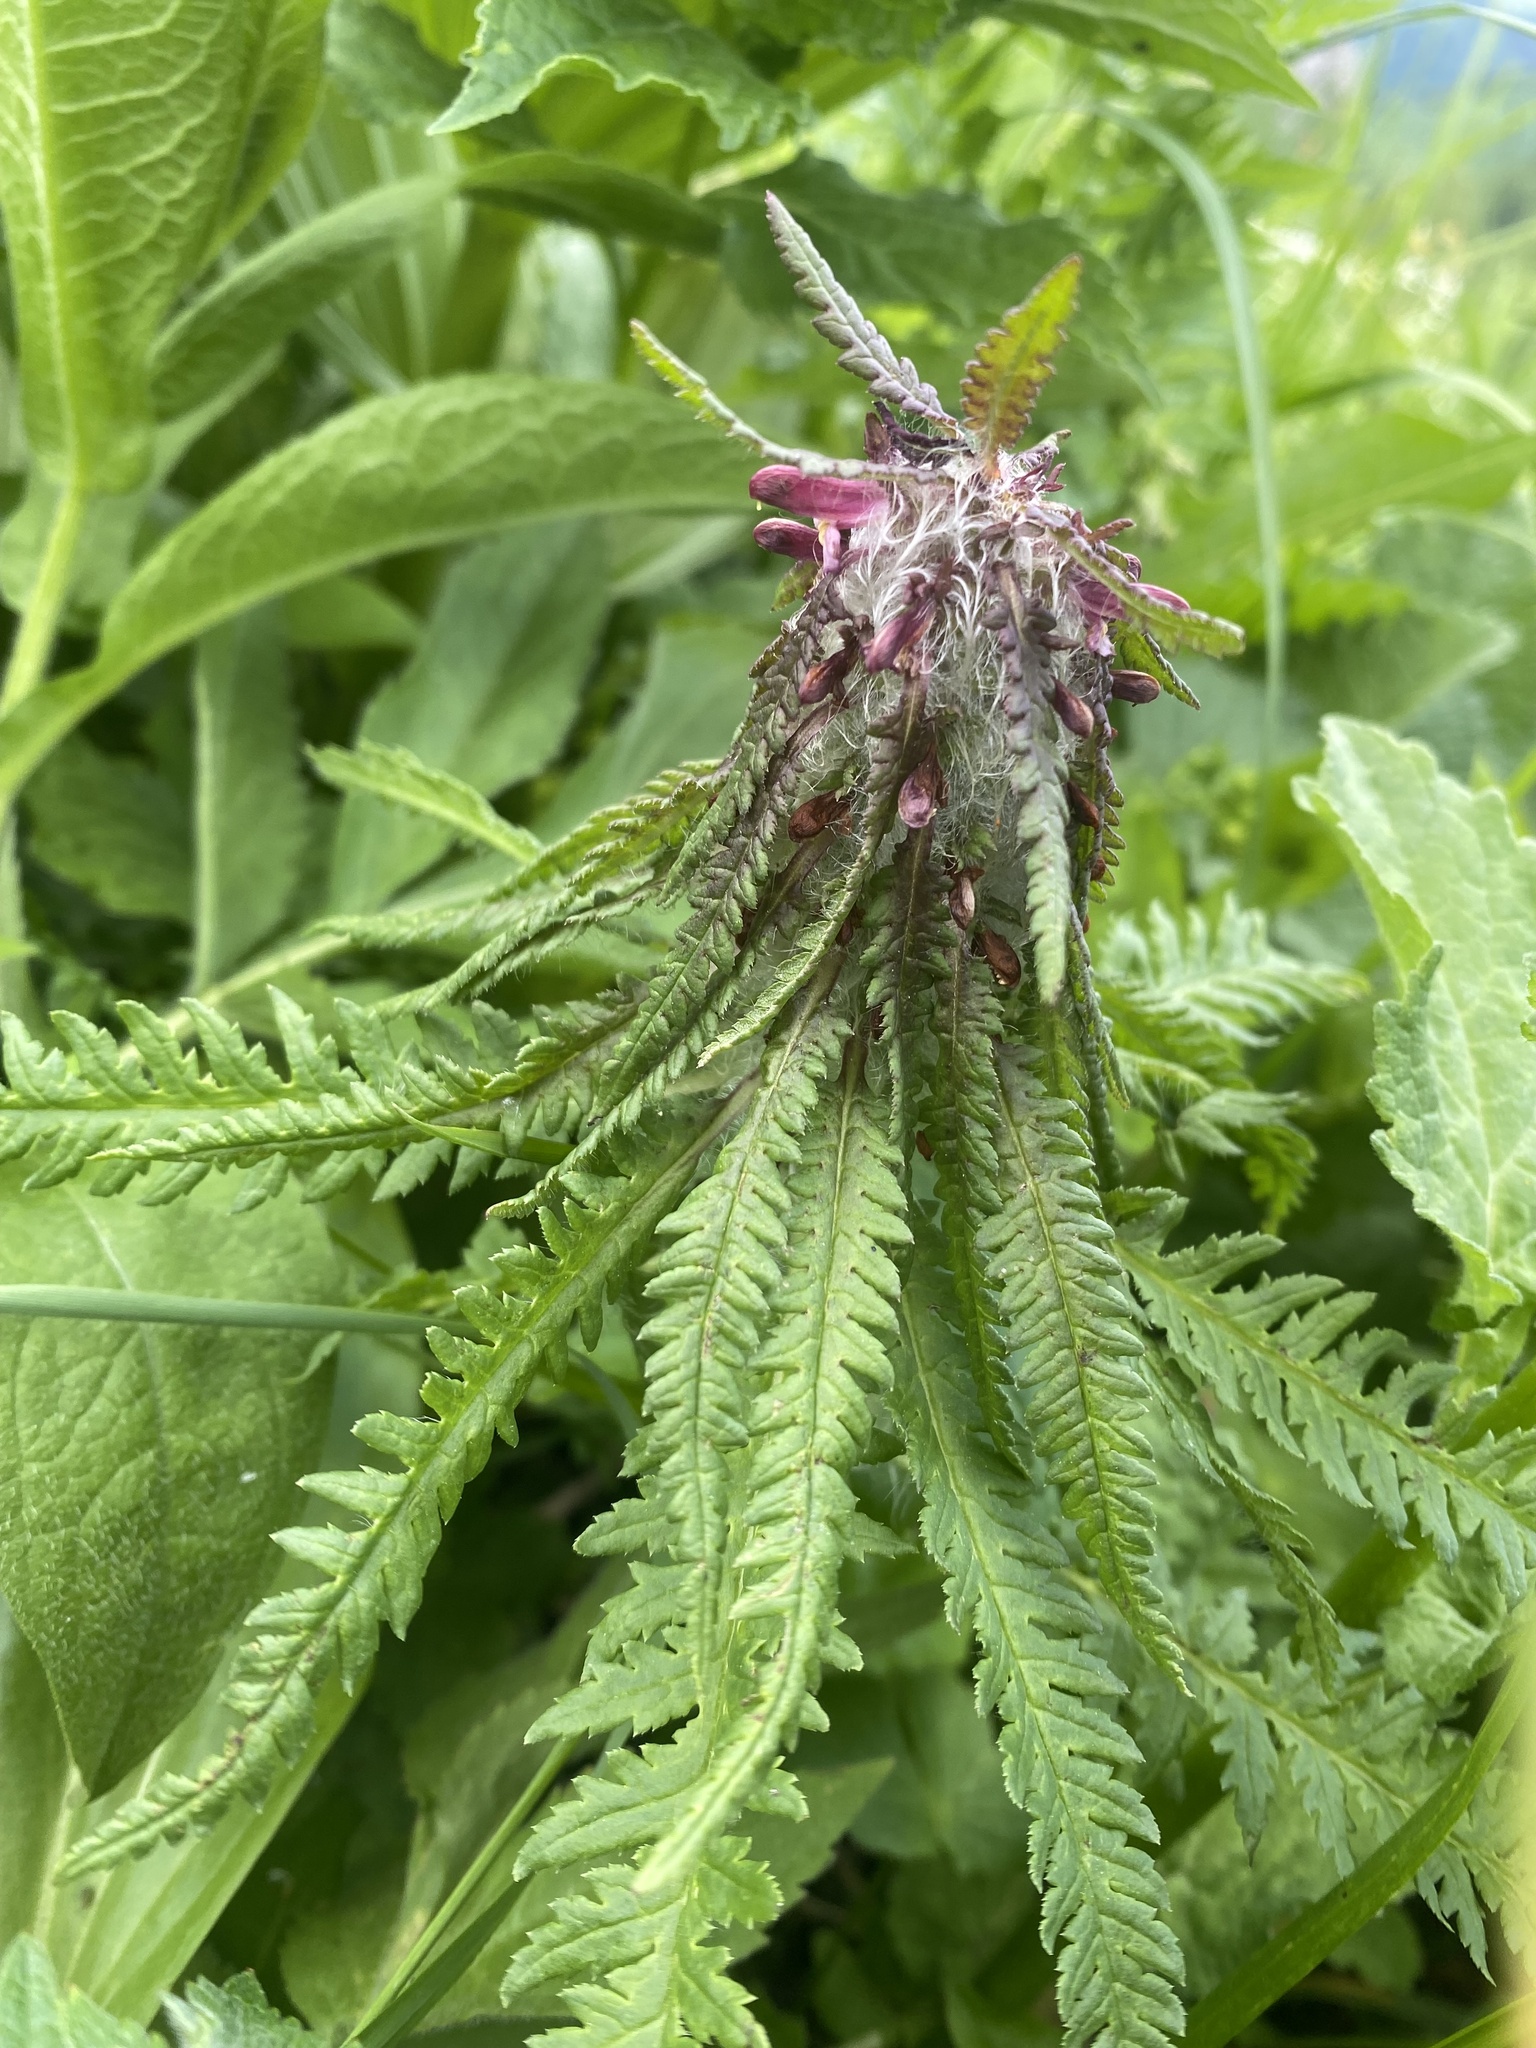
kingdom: Plantae
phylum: Tracheophyta
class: Magnoliopsida
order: Lamiales
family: Orobanchaceae
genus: Pedicularis
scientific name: Pedicularis wilhelmsiana
